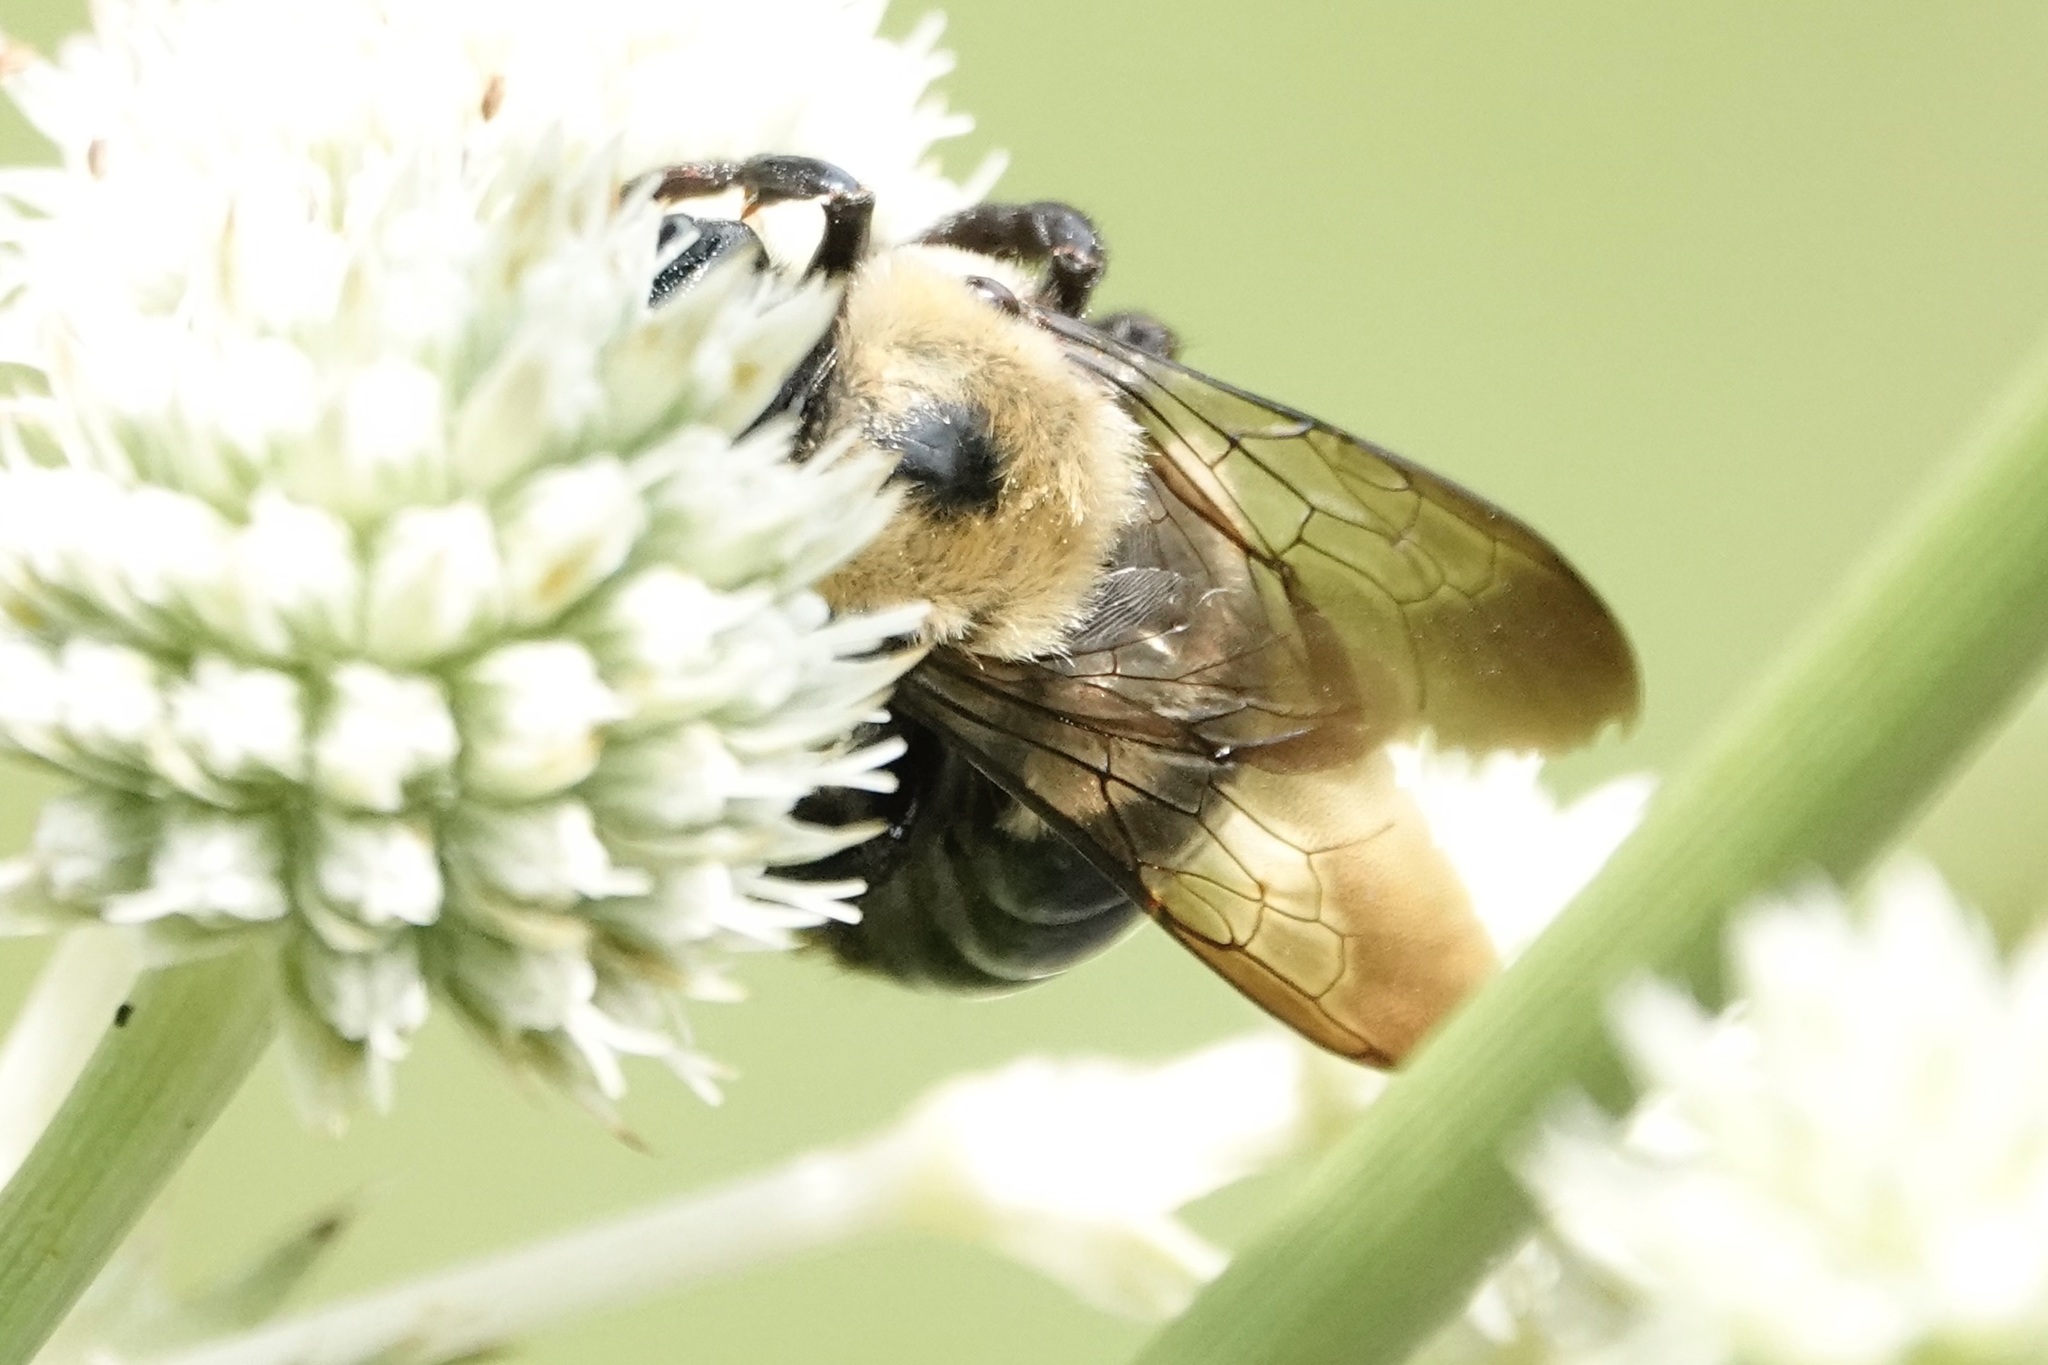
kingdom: Animalia
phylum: Arthropoda
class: Insecta
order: Hymenoptera
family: Apidae
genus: Xylocopa
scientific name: Xylocopa virginica
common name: Carpenter bee
